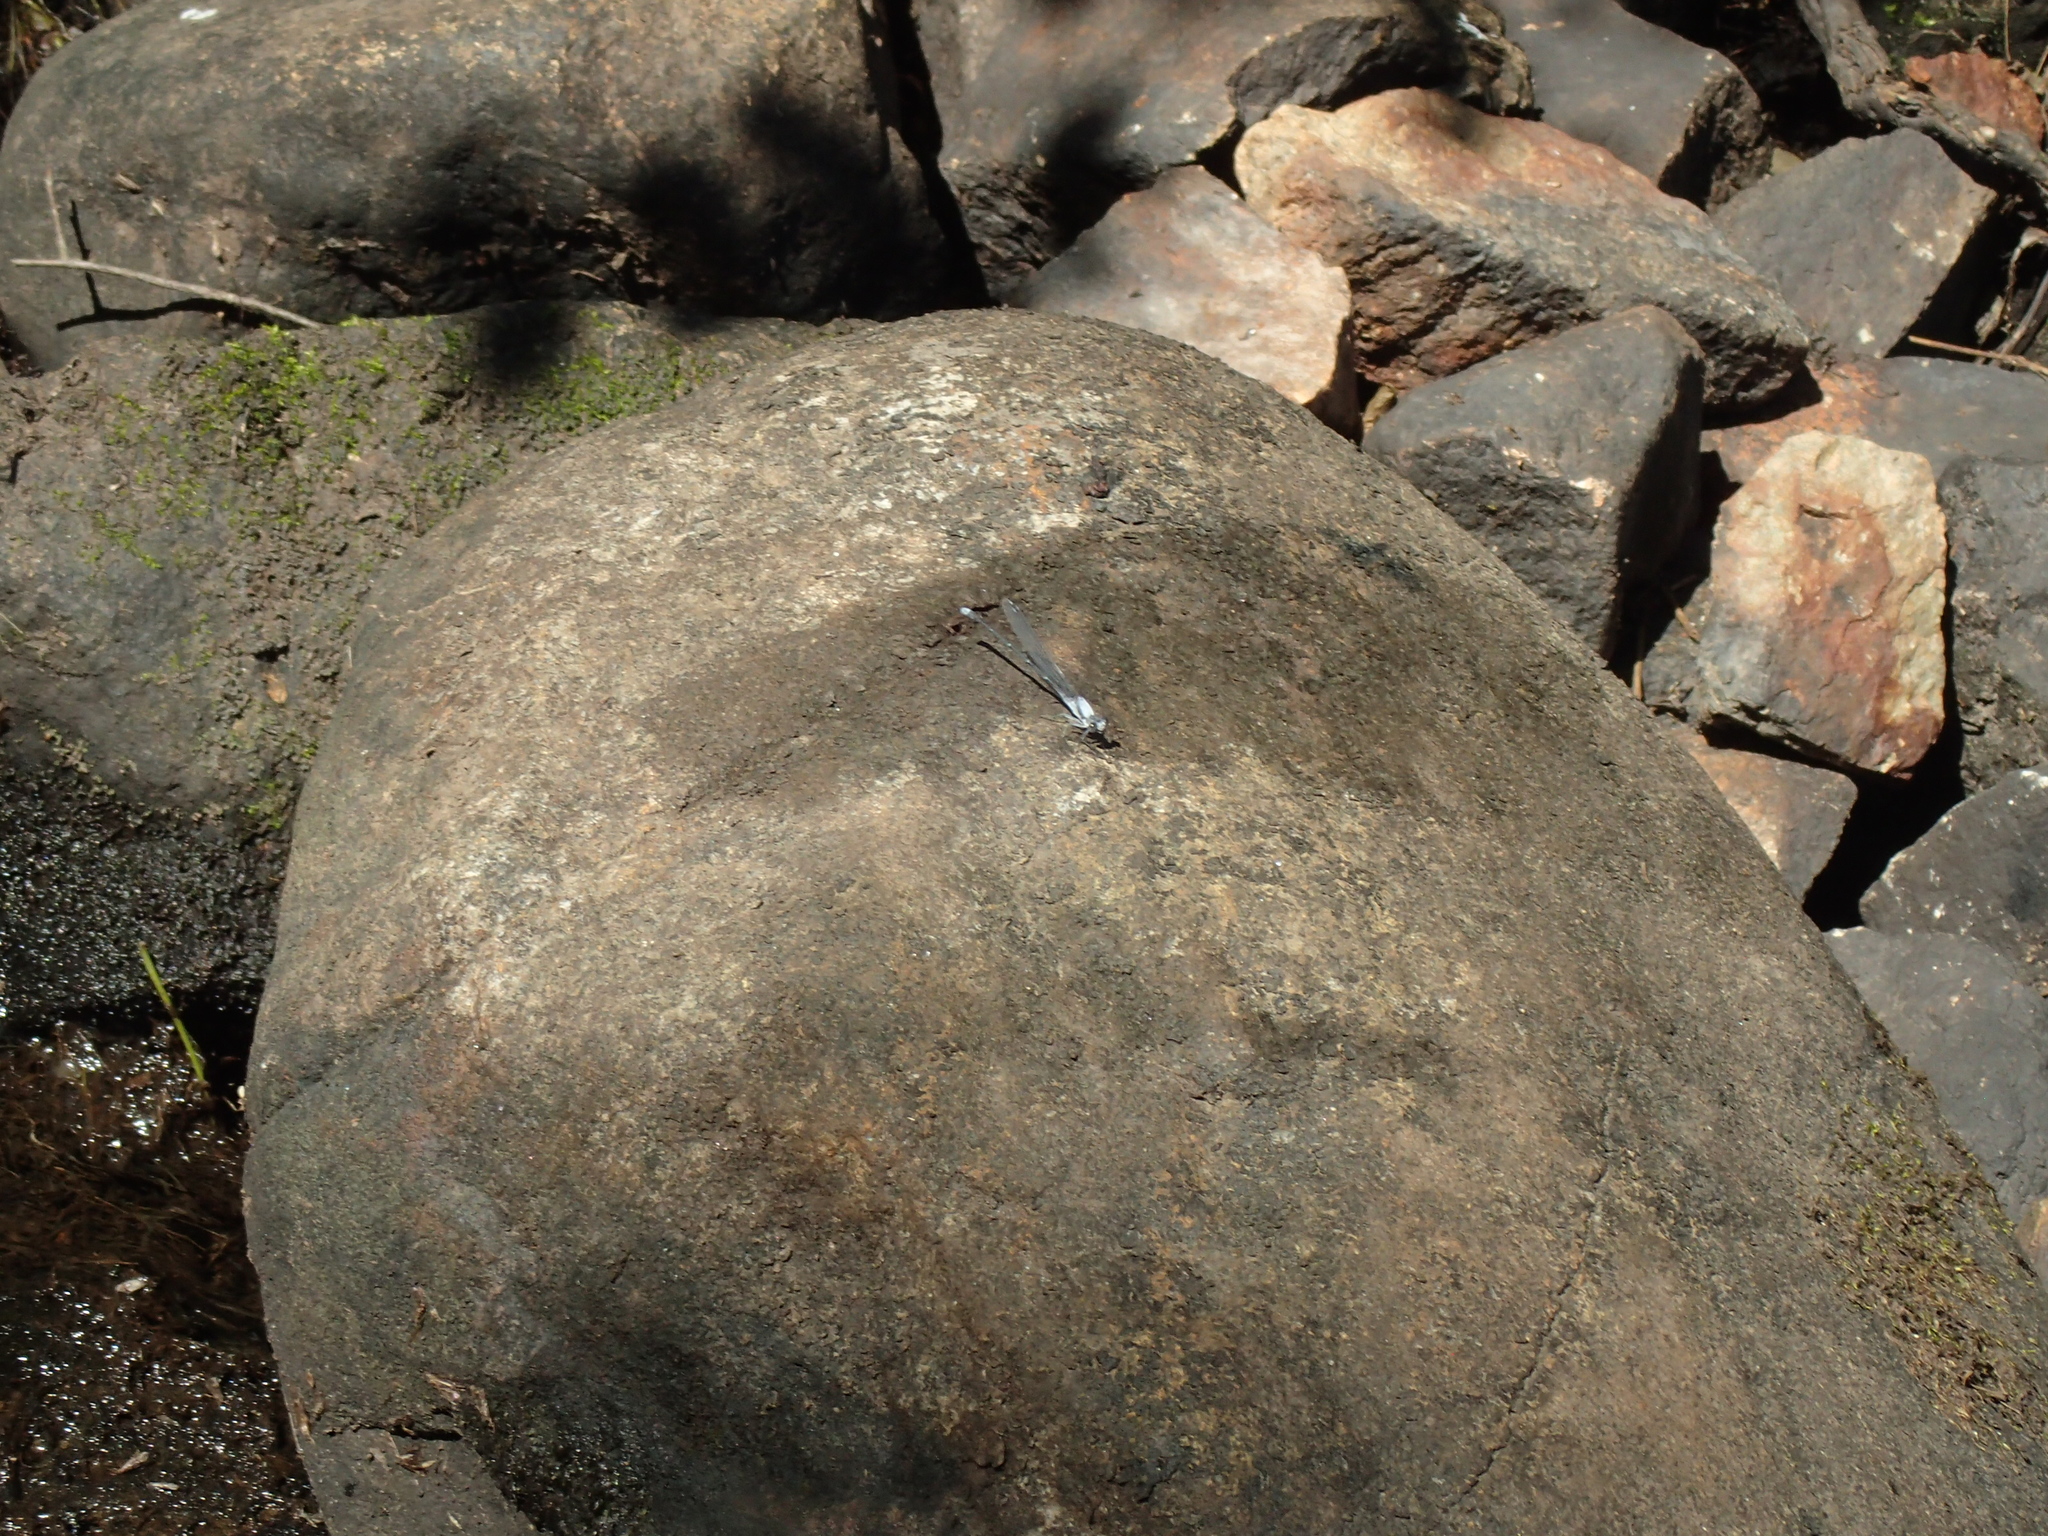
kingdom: Animalia
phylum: Arthropoda
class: Insecta
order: Odonata
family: Coenagrionidae
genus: Argia
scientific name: Argia moesta
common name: Powdered dancer
